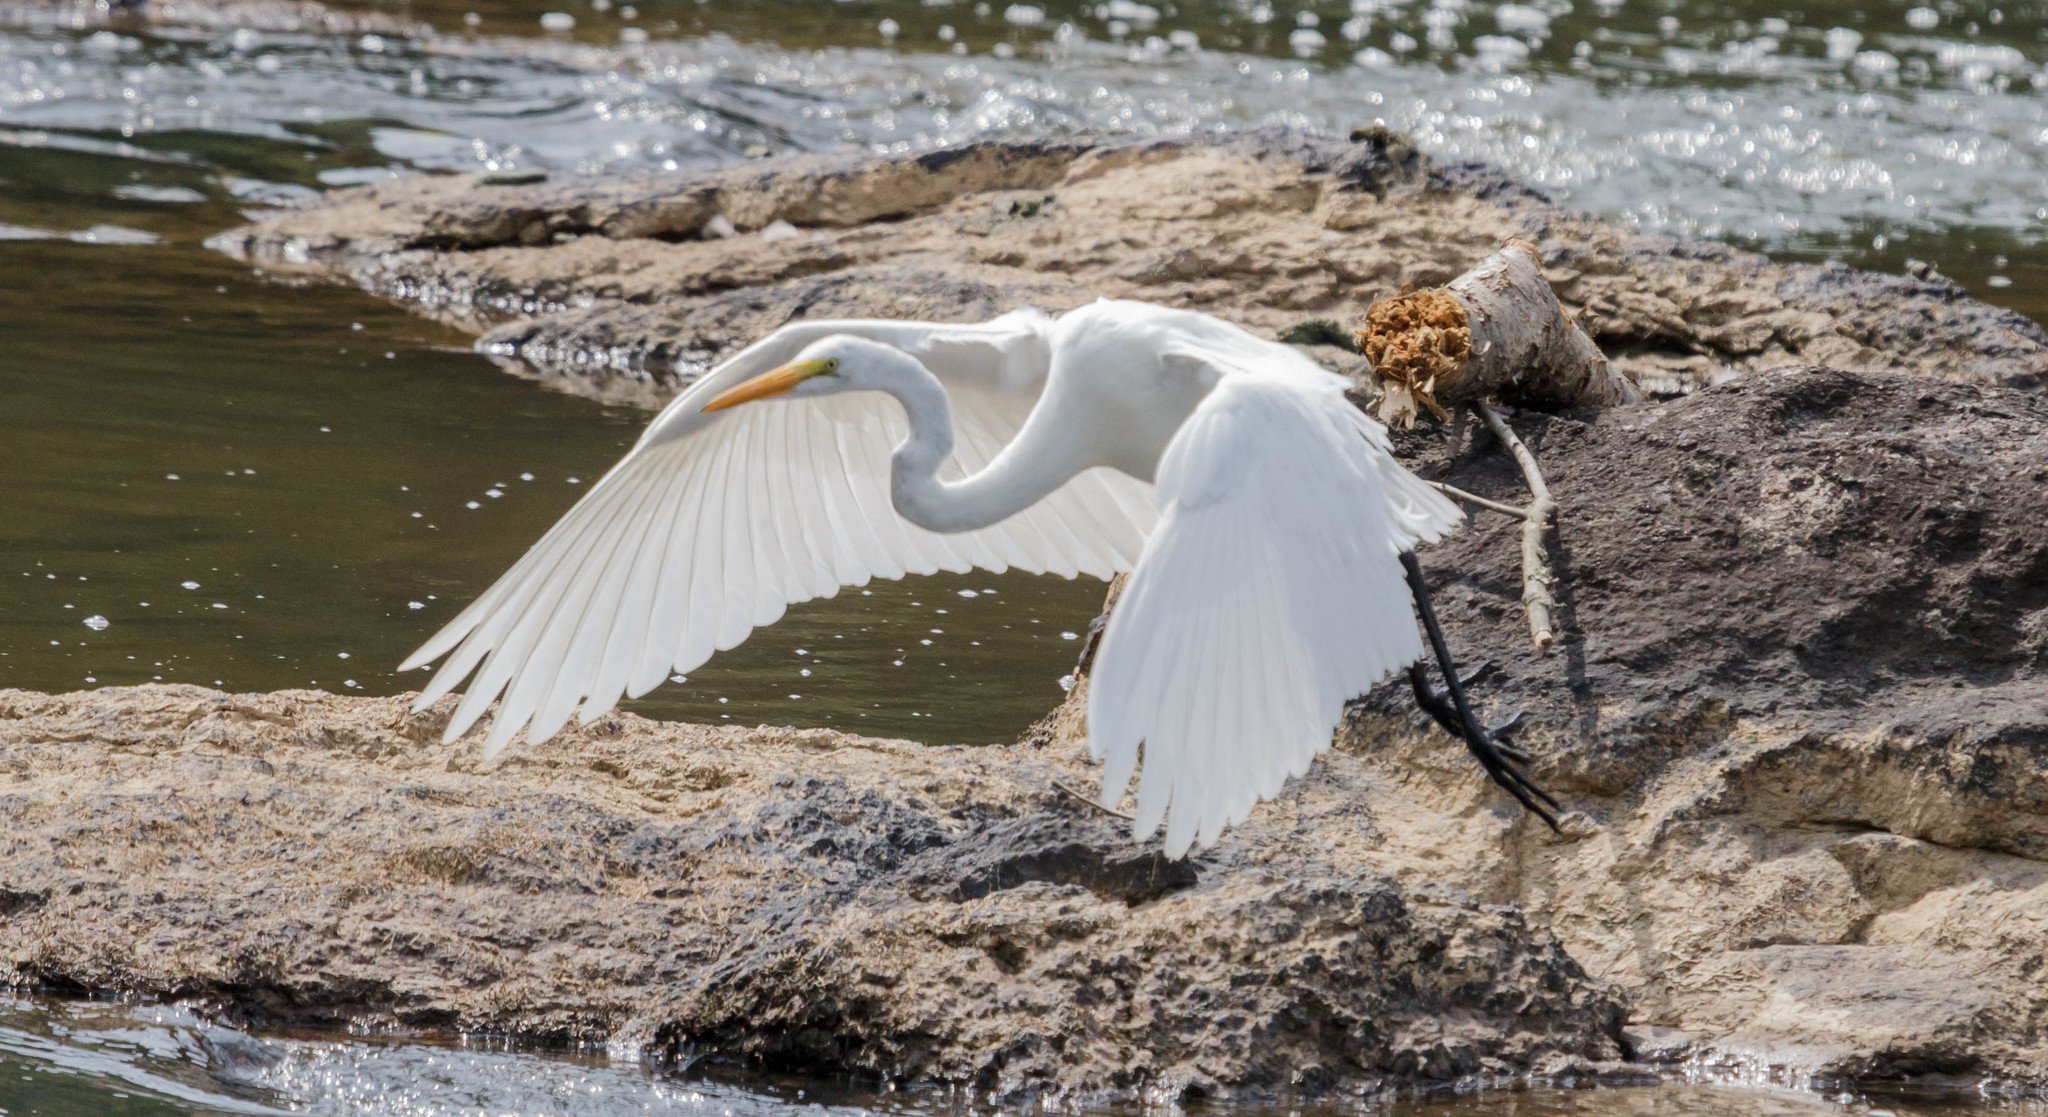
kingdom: Animalia
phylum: Chordata
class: Aves
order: Pelecaniformes
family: Ardeidae
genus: Ardea
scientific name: Ardea alba
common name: Great egret
